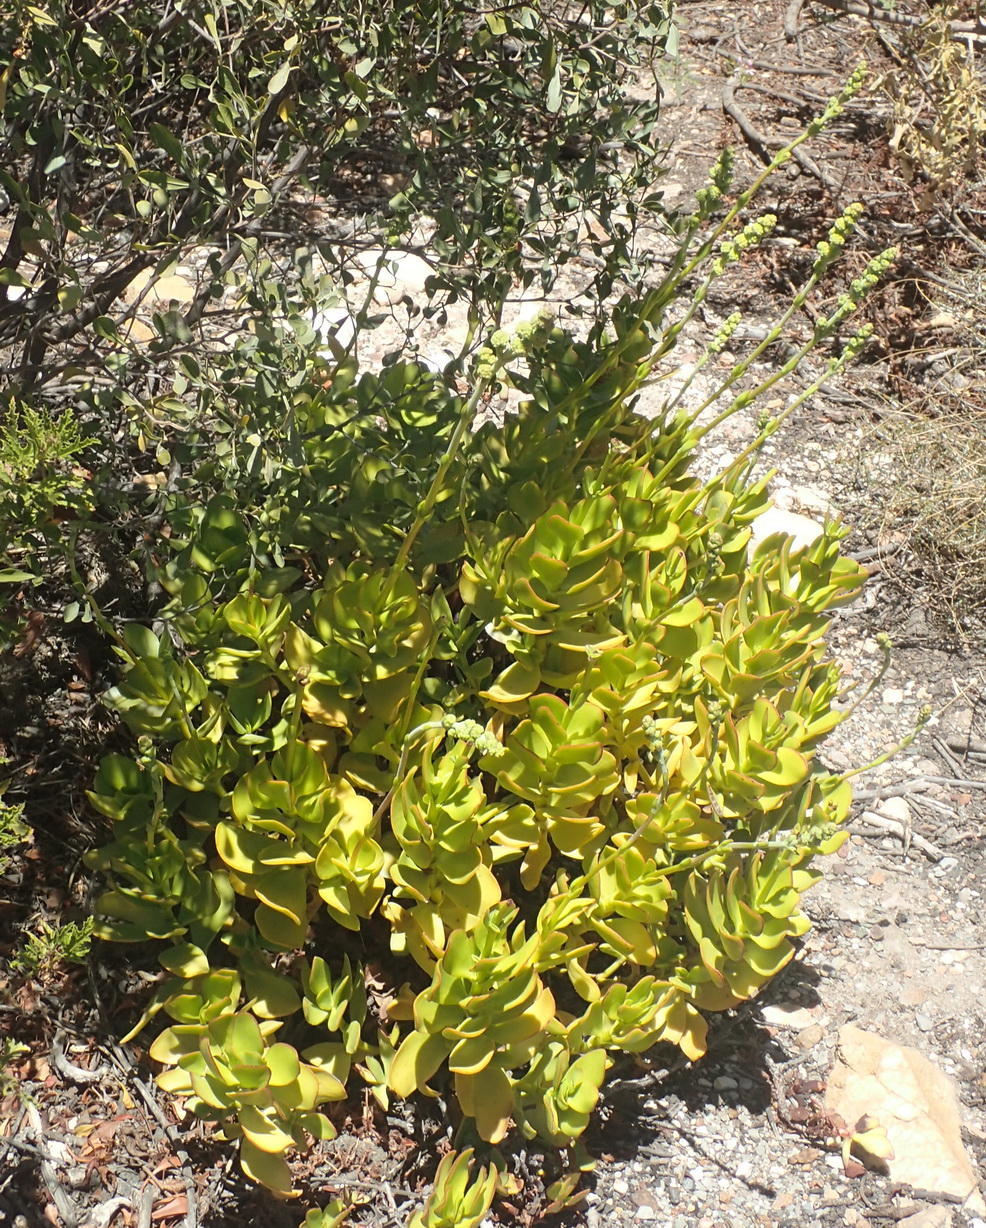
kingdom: Plantae
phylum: Tracheophyta
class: Magnoliopsida
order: Saxifragales
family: Crassulaceae
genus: Crassula
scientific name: Crassula cultrata
